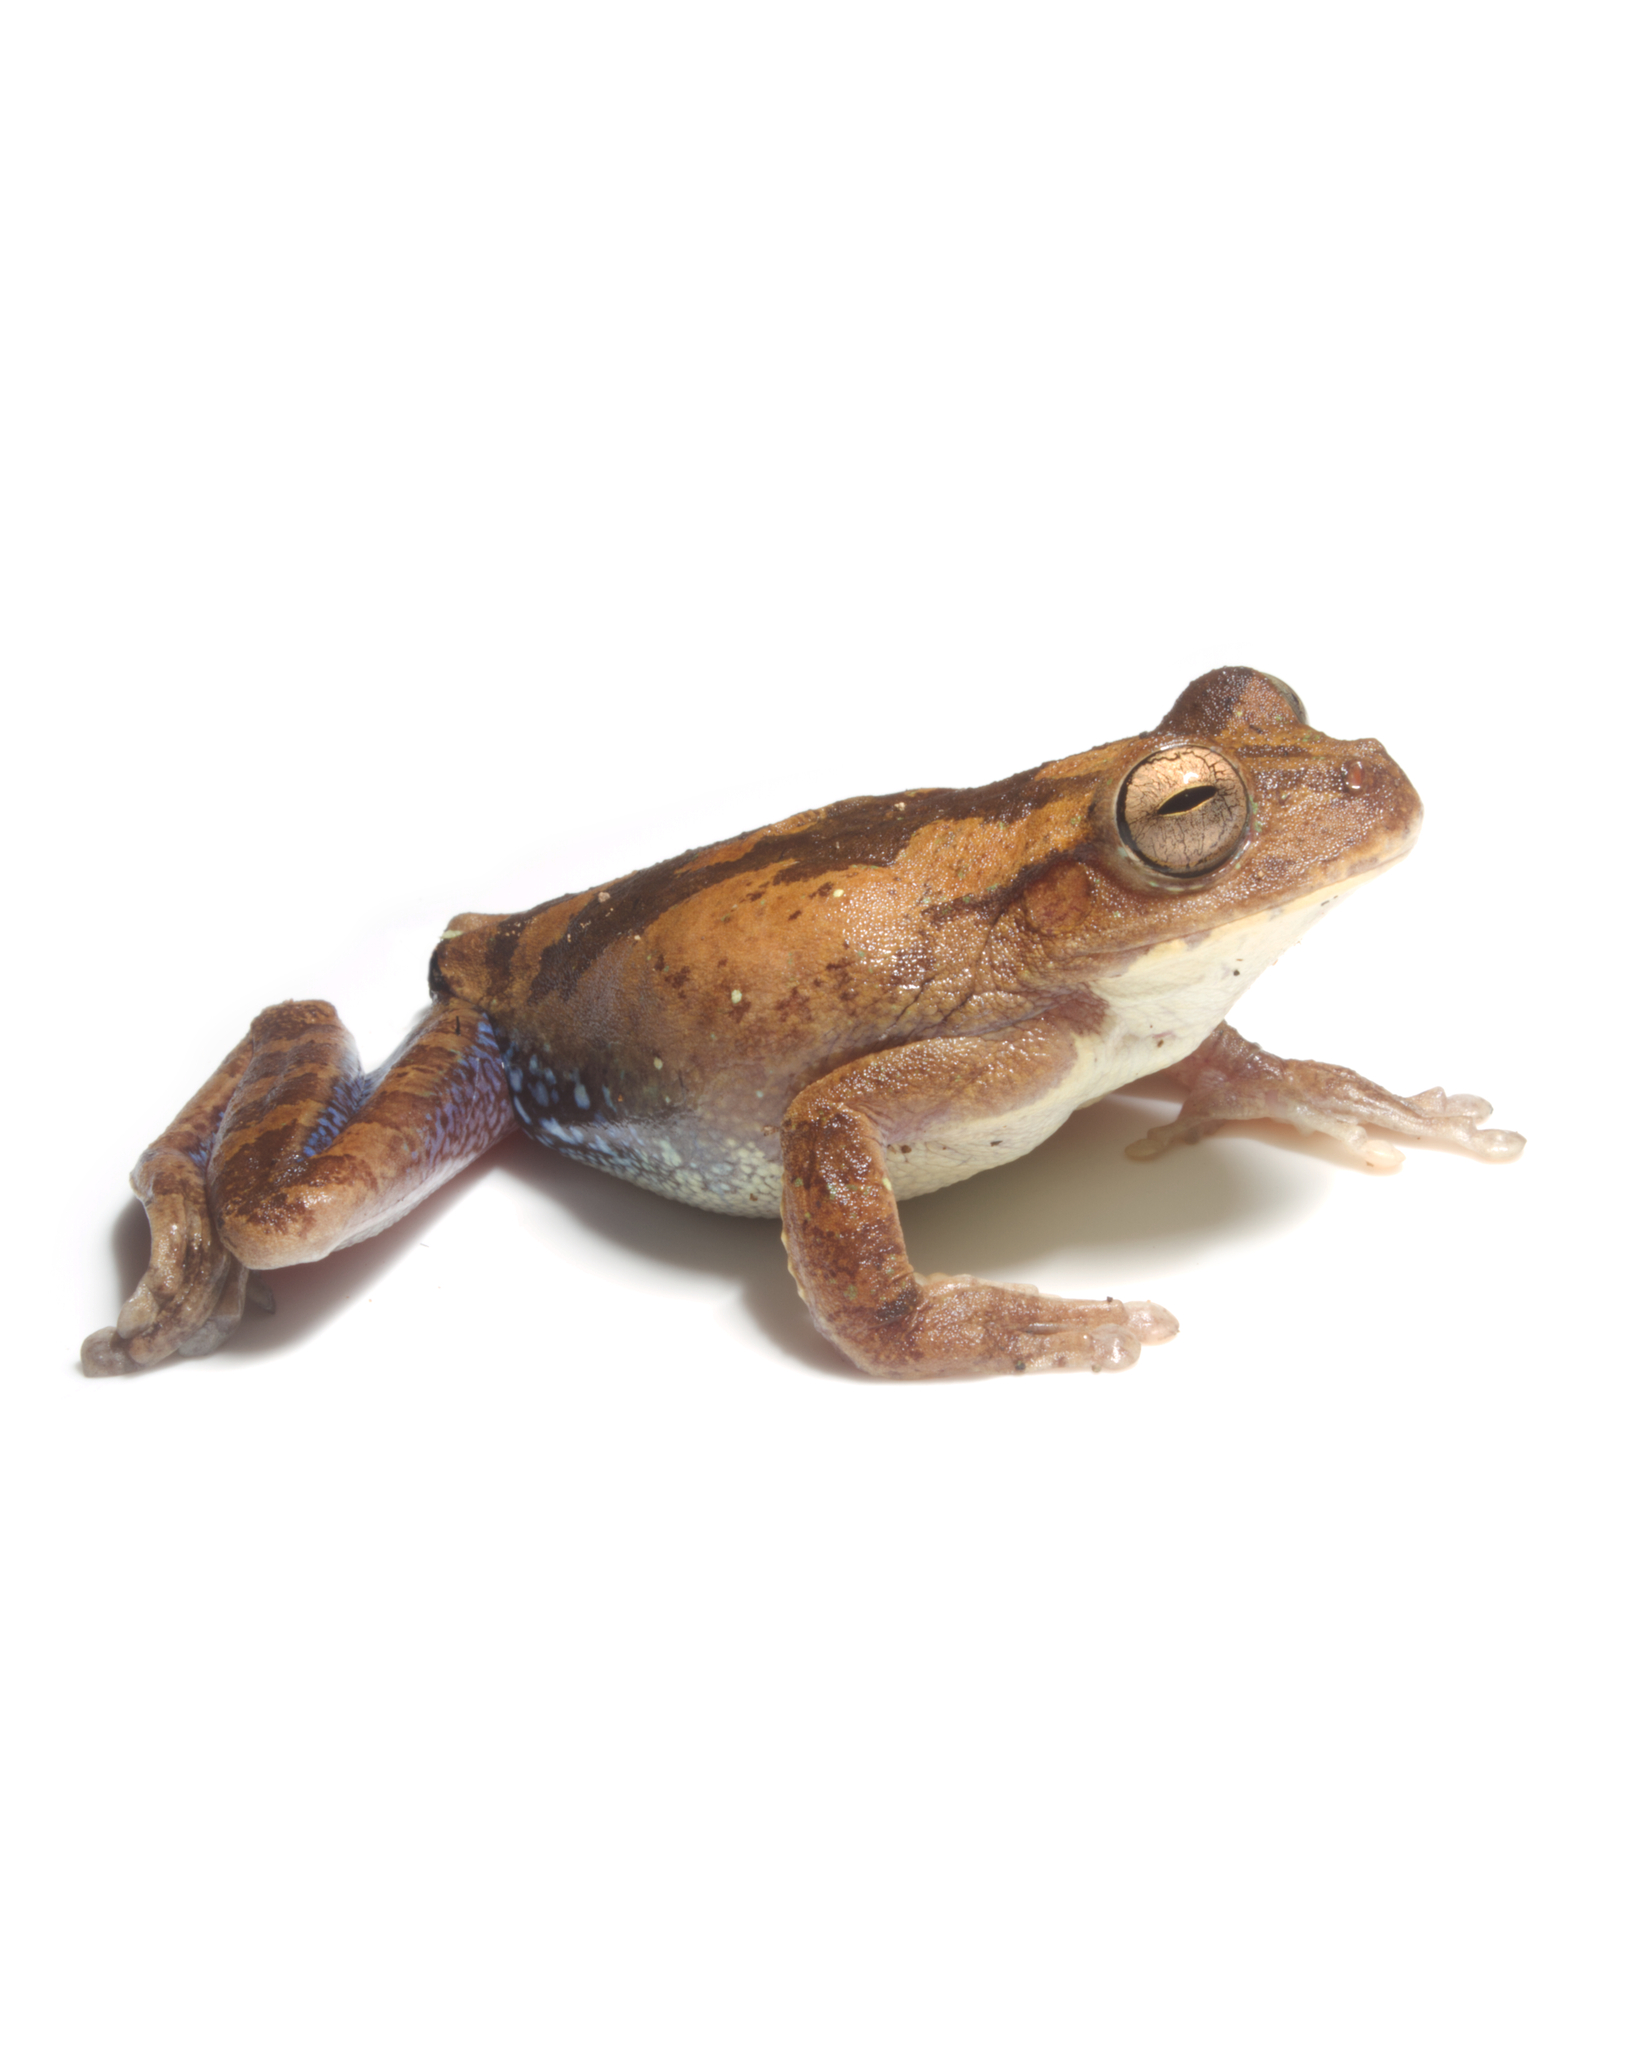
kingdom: Animalia
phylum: Chordata
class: Amphibia
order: Anura
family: Hylidae
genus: Smilisca
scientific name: Smilisca sila
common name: Panama cross-banded treefrog
